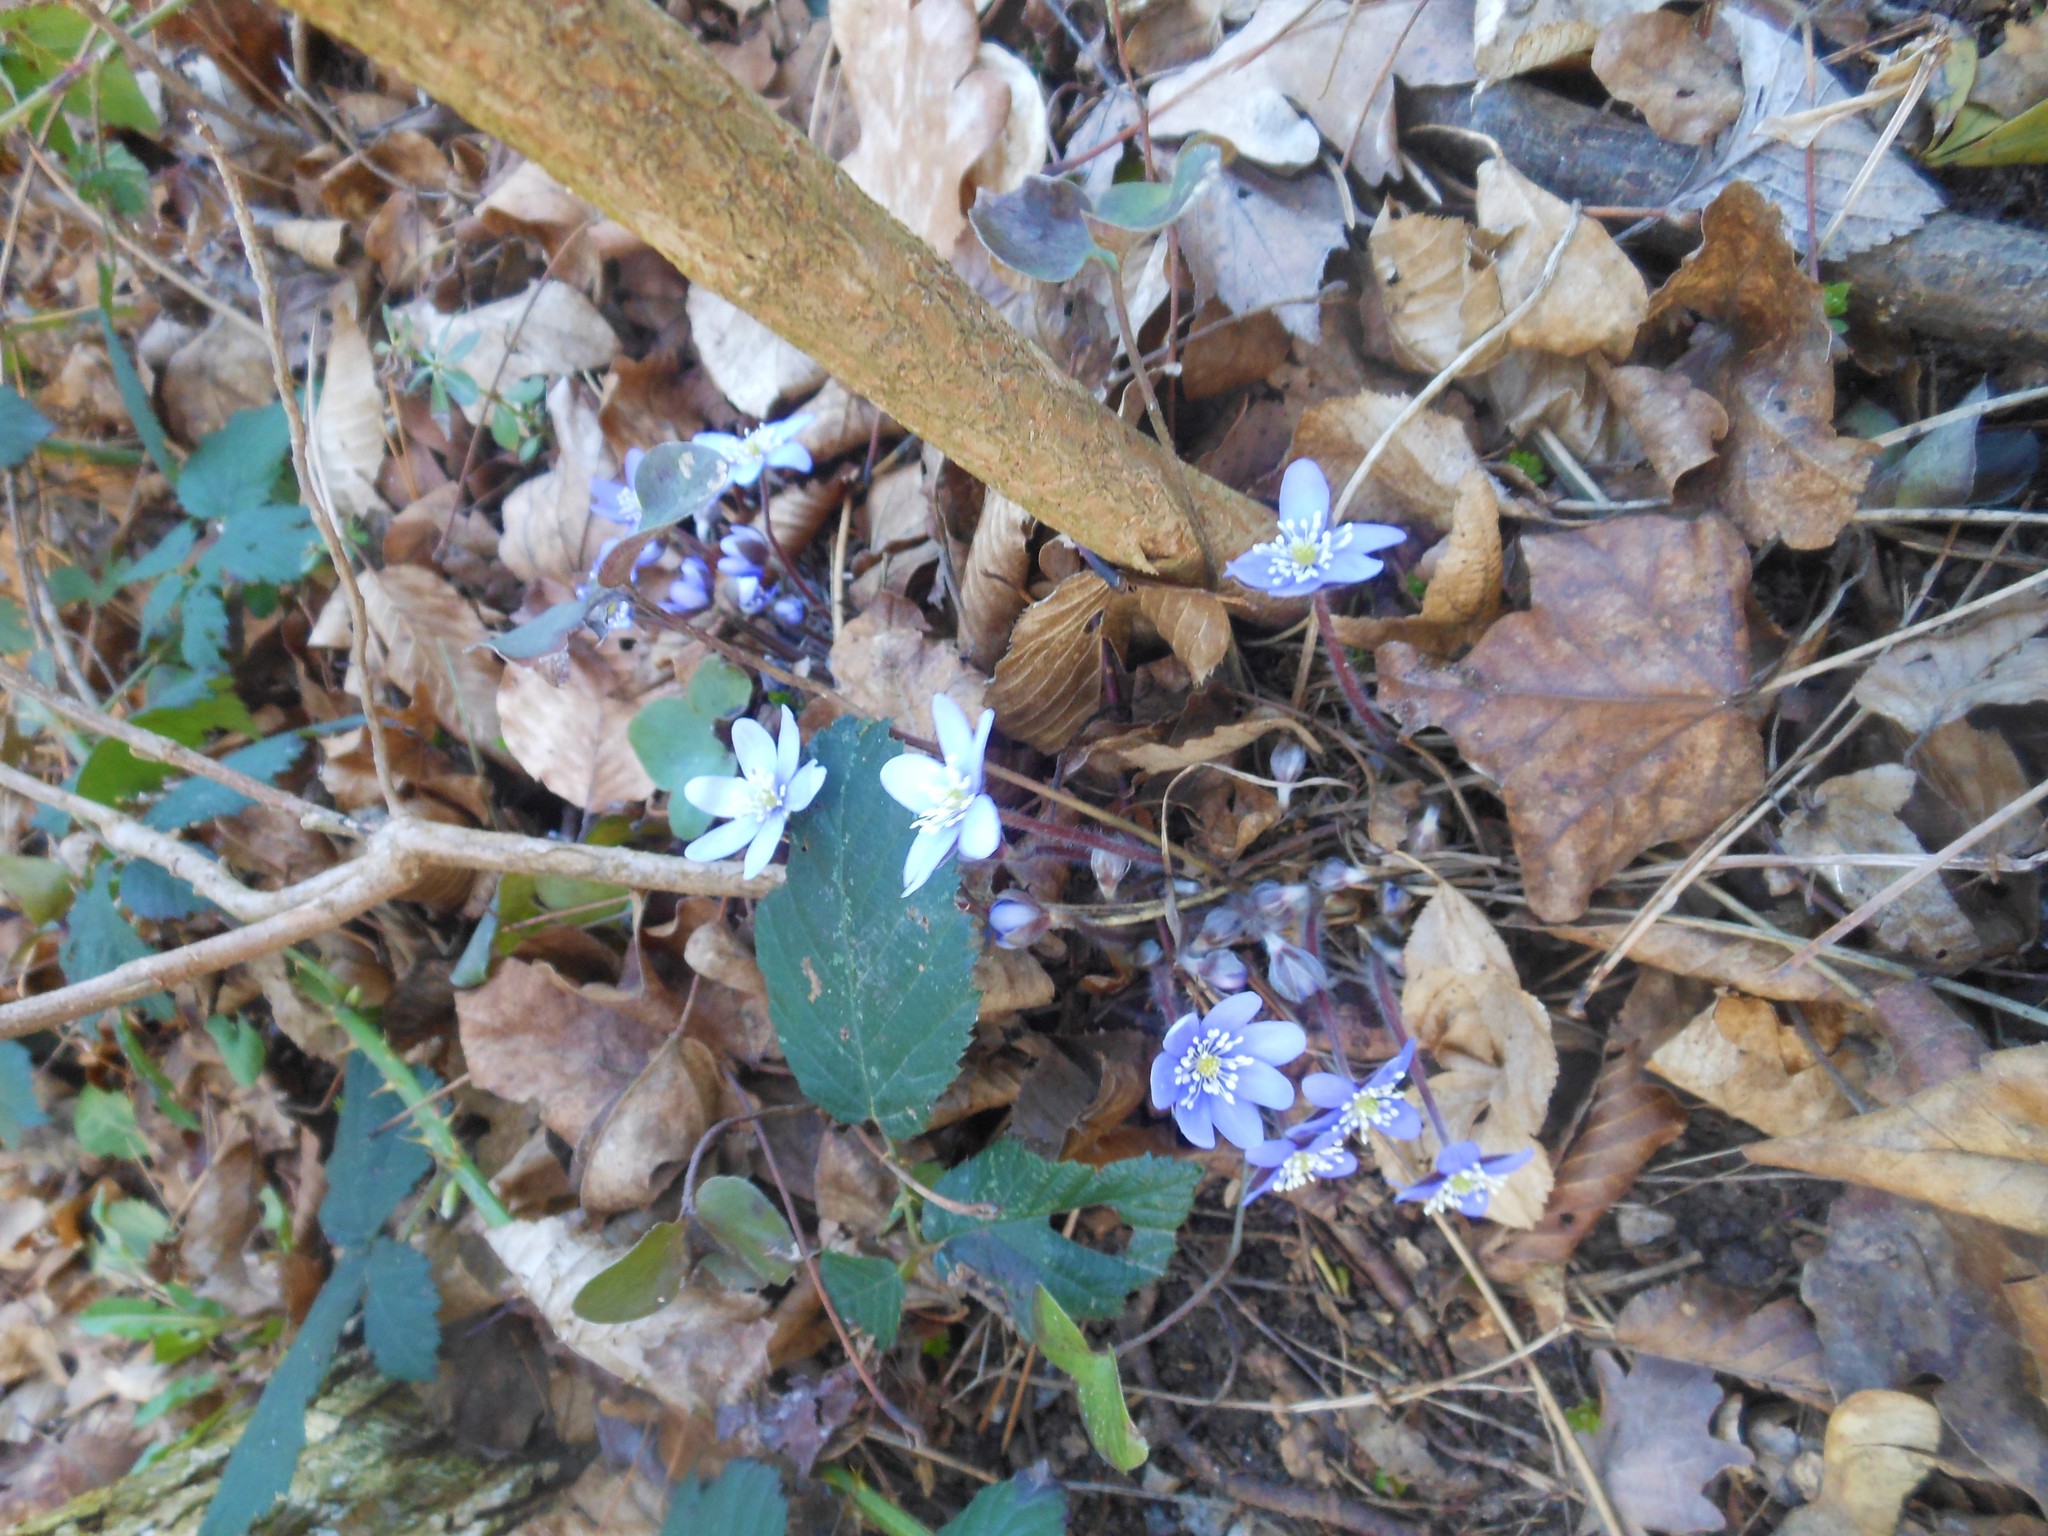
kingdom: Plantae
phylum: Tracheophyta
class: Magnoliopsida
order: Ranunculales
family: Ranunculaceae
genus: Hepatica
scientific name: Hepatica nobilis
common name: Liverleaf
